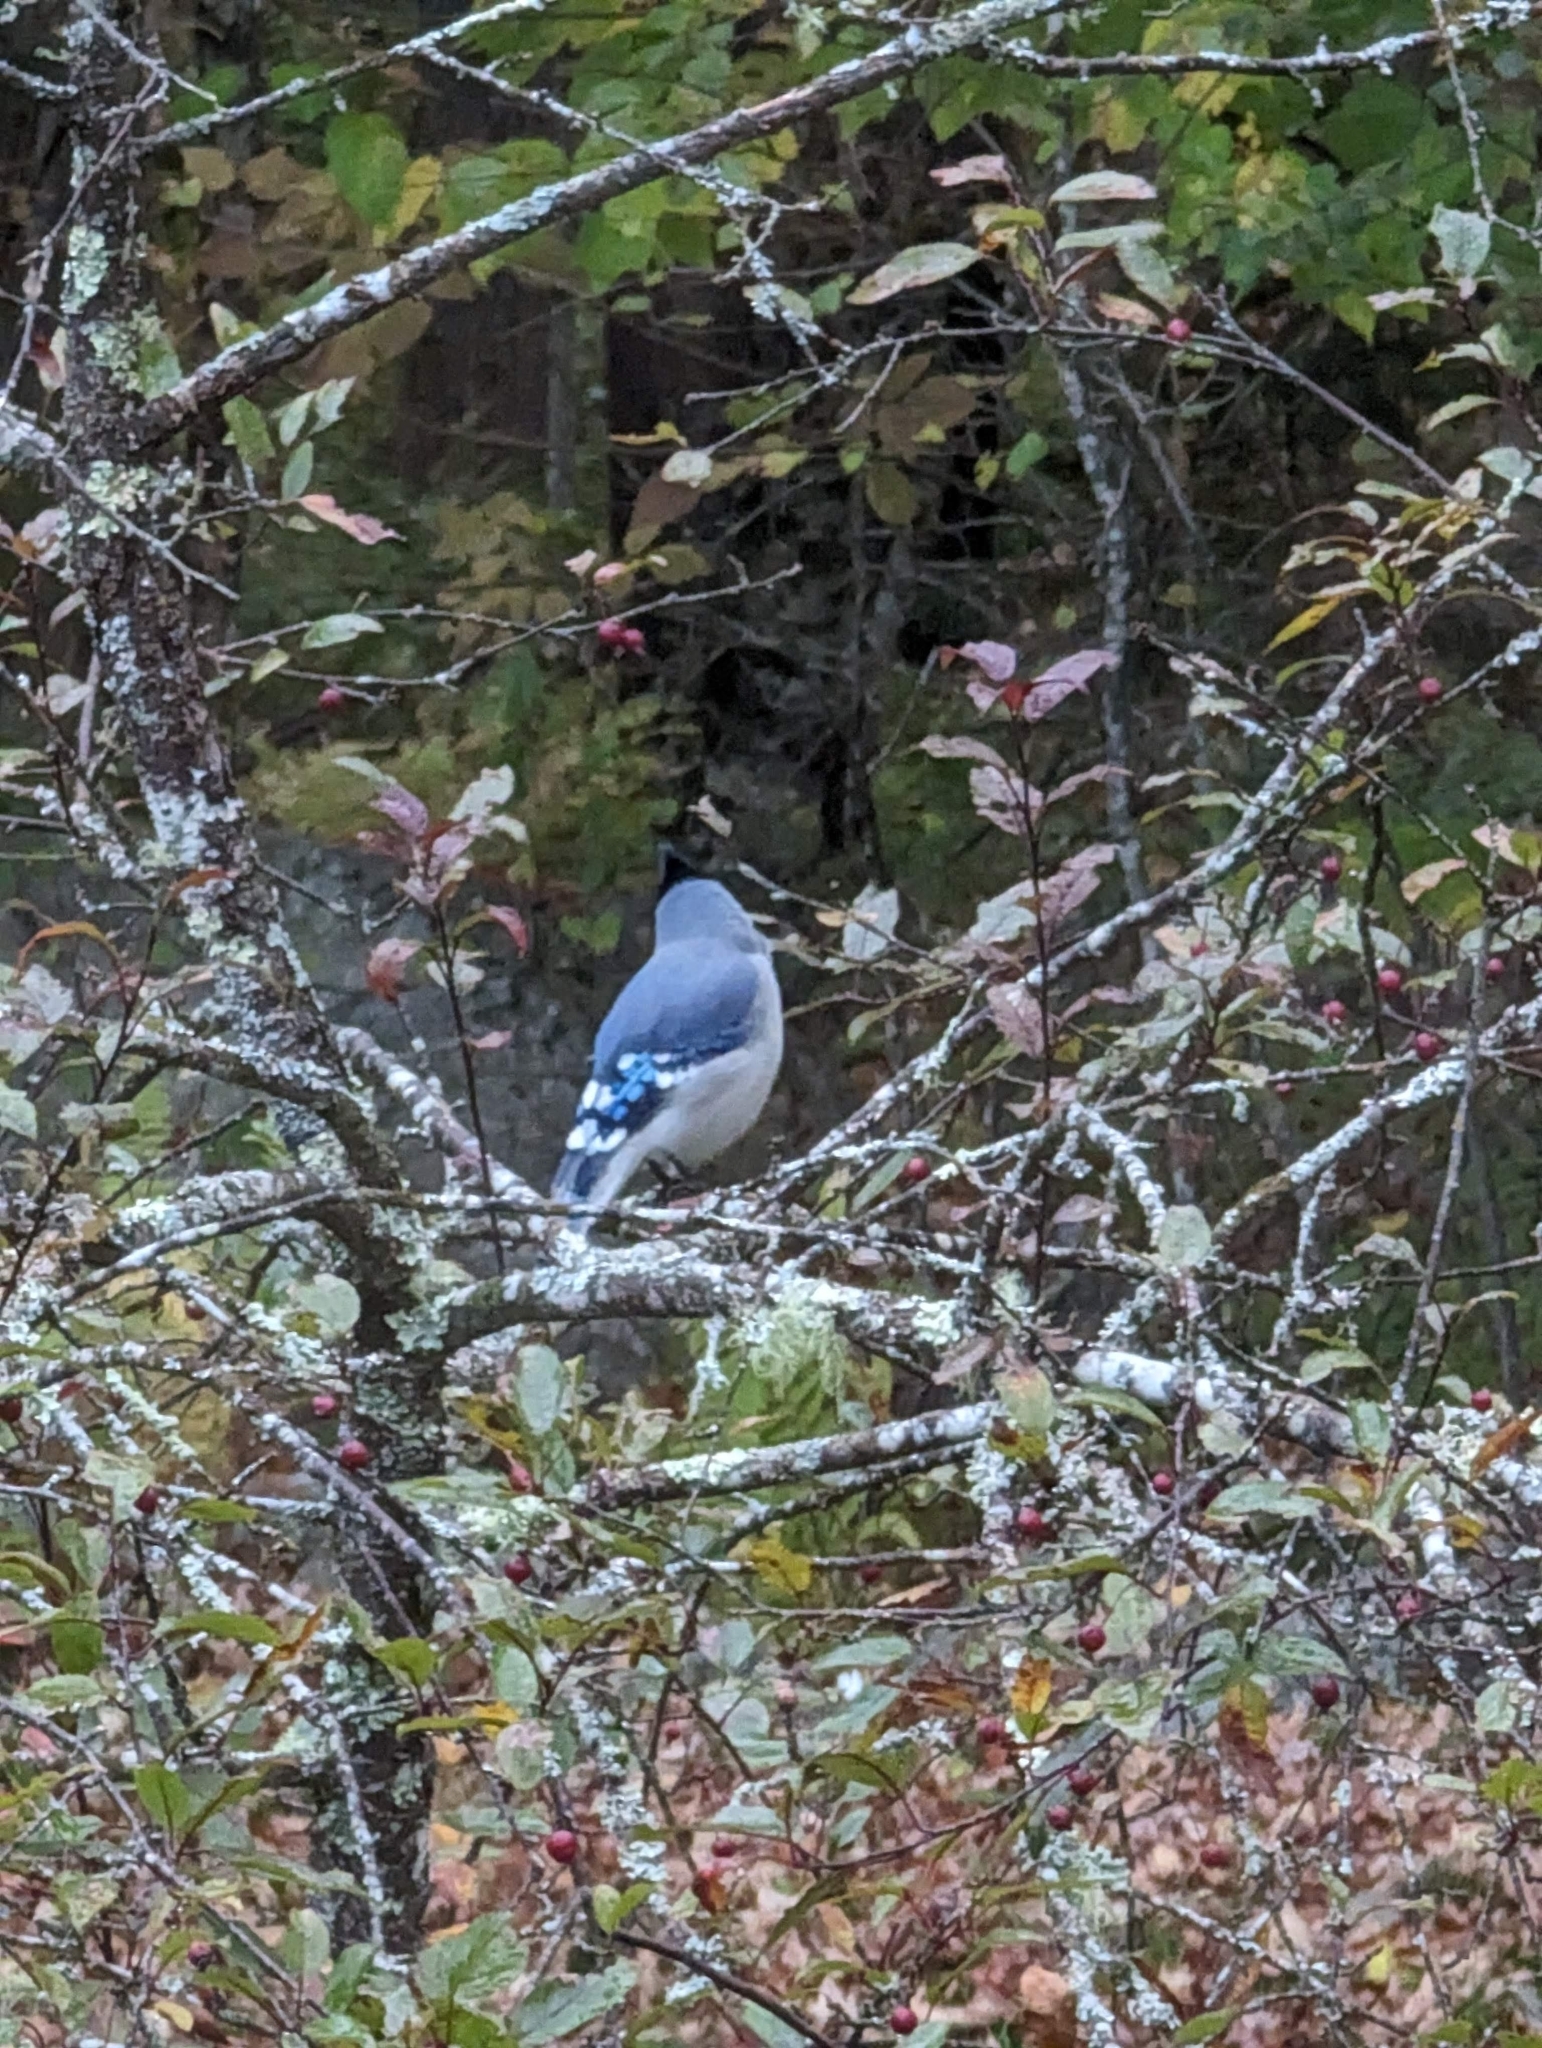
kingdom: Animalia
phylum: Chordata
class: Aves
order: Passeriformes
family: Corvidae
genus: Cyanocitta
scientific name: Cyanocitta cristata
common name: Blue jay
